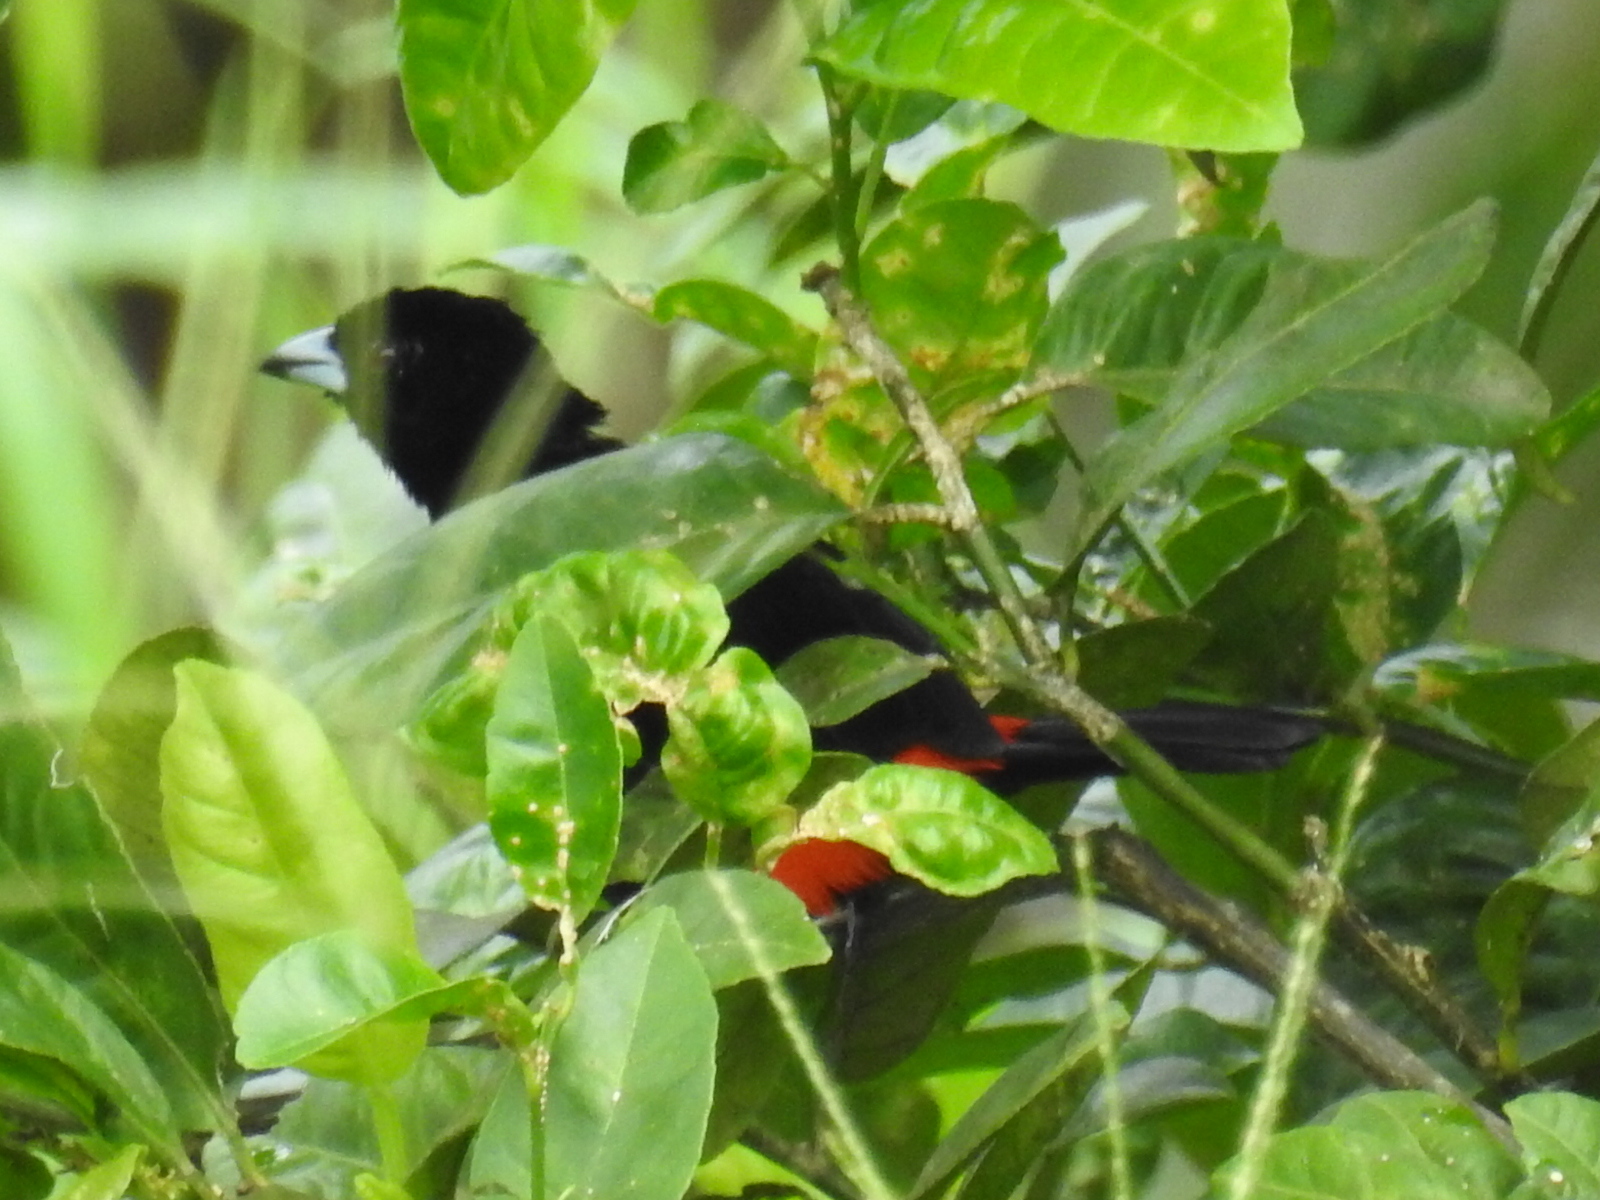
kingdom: Animalia
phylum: Chordata
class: Aves
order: Passeriformes
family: Thraupidae
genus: Ramphocelus
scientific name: Ramphocelus passerinii
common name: Passerini's tanager
